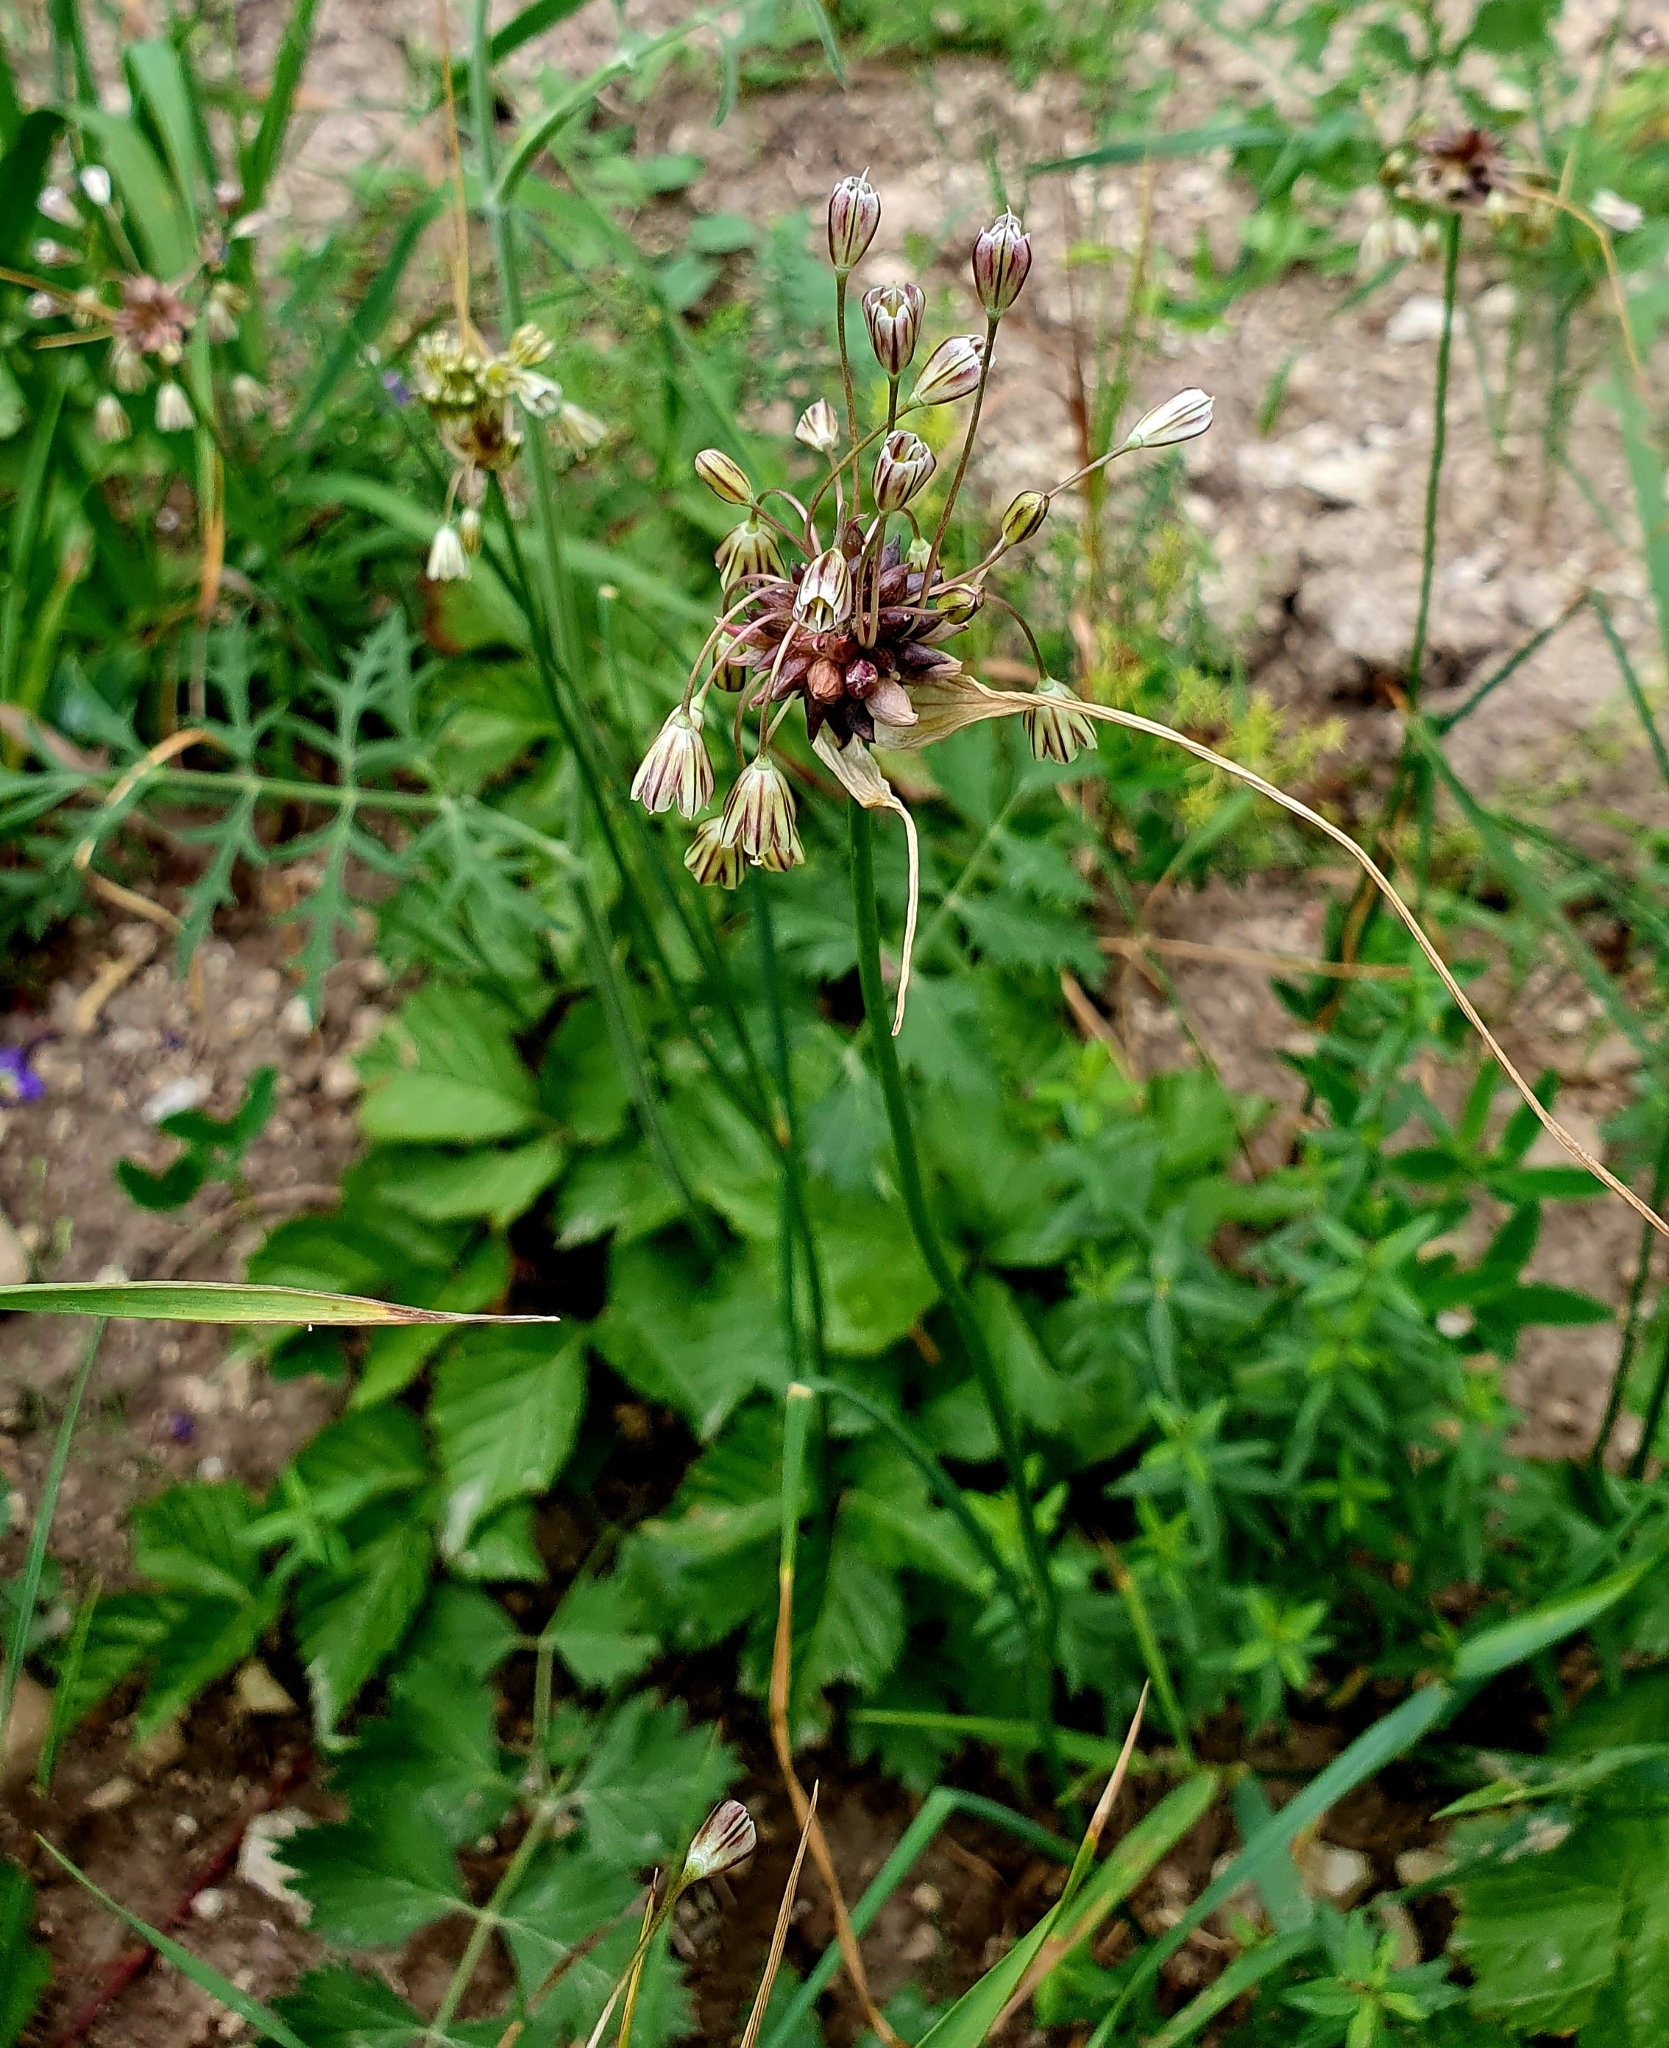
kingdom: Plantae
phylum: Tracheophyta
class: Liliopsida
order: Asparagales
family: Amaryllidaceae
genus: Allium
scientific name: Allium oleraceum
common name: Field garlic
